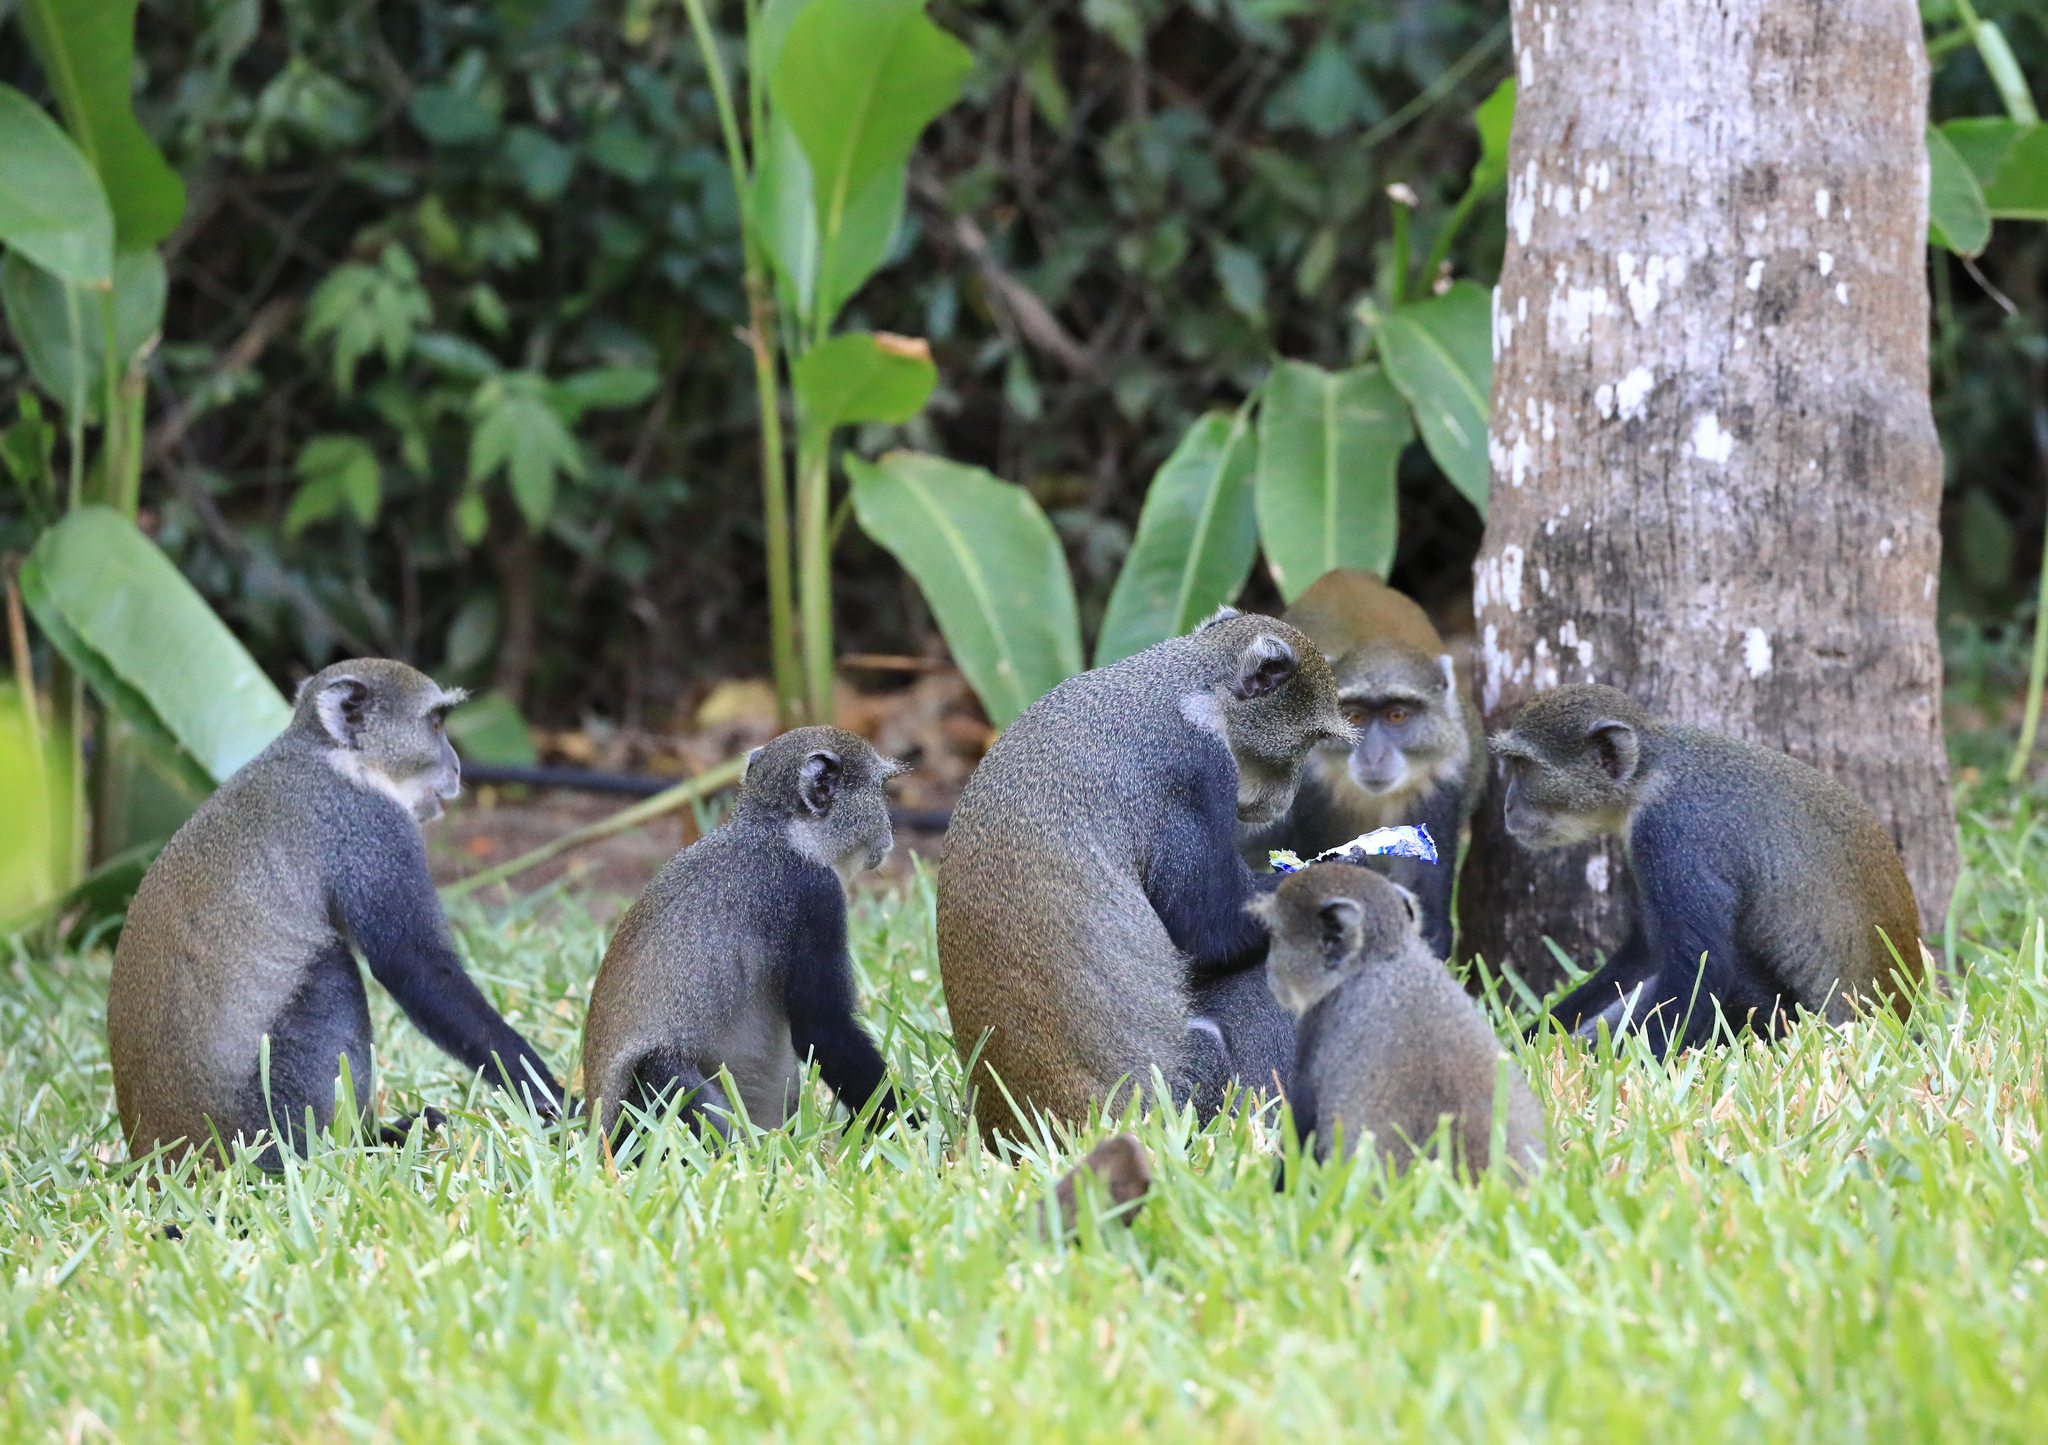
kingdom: Animalia
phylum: Chordata
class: Mammalia
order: Primates
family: Cercopithecidae
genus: Cercopithecus
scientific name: Cercopithecus mitis
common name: Blue monkey
